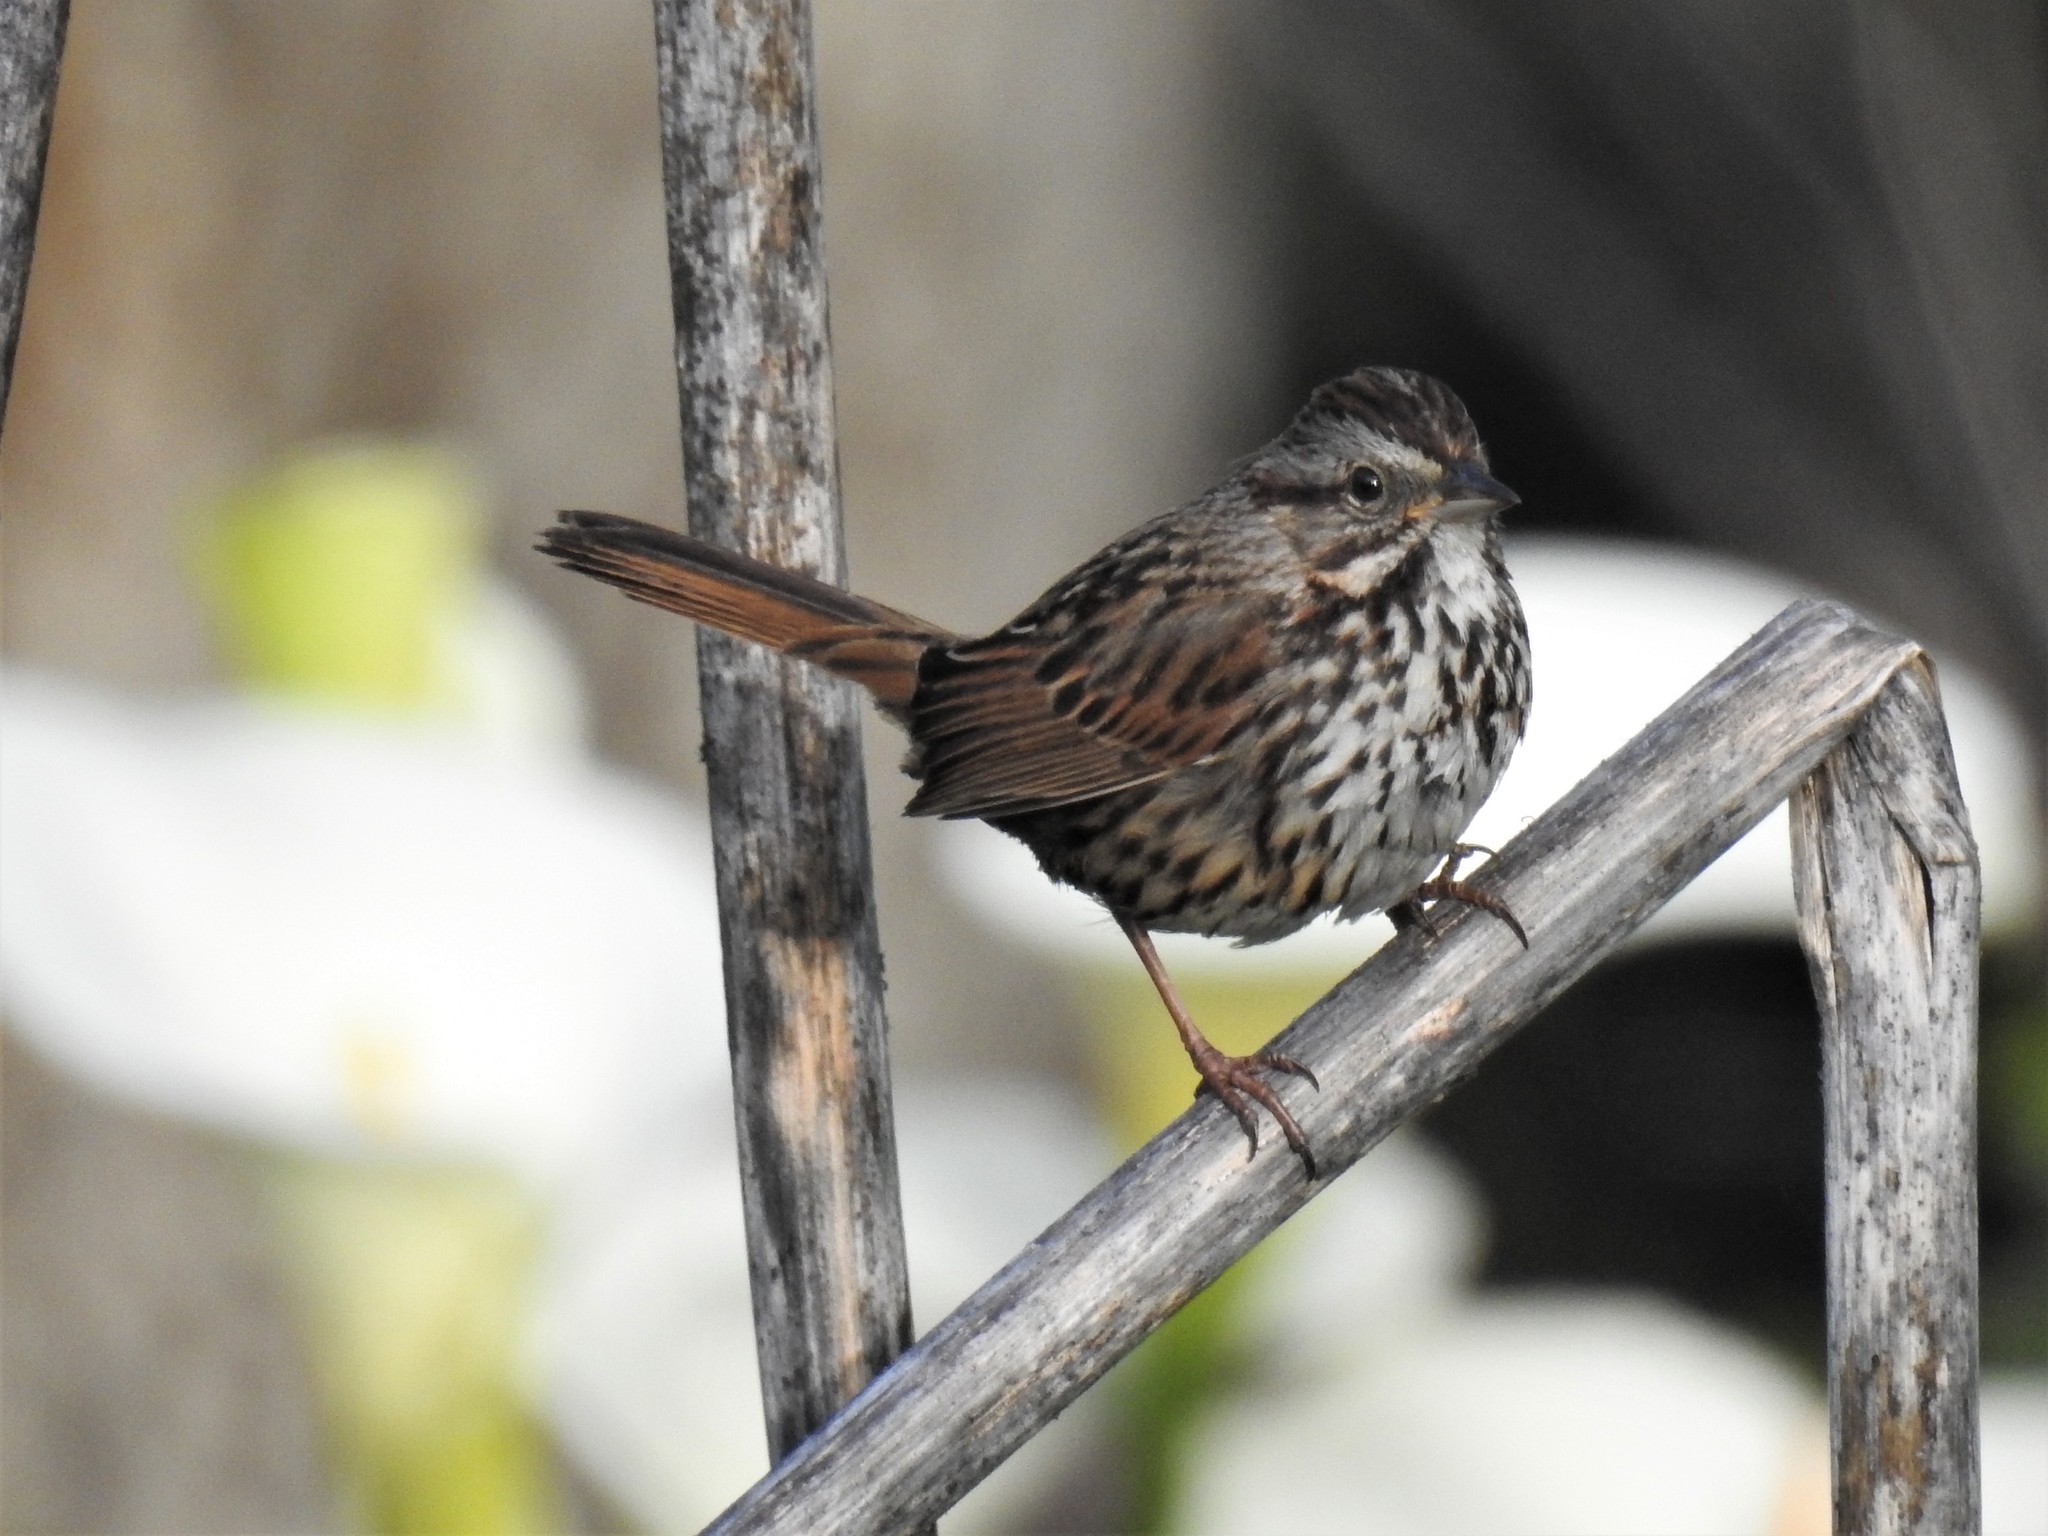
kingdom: Animalia
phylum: Chordata
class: Aves
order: Passeriformes
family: Passerellidae
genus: Melospiza
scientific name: Melospiza melodia
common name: Song sparrow
